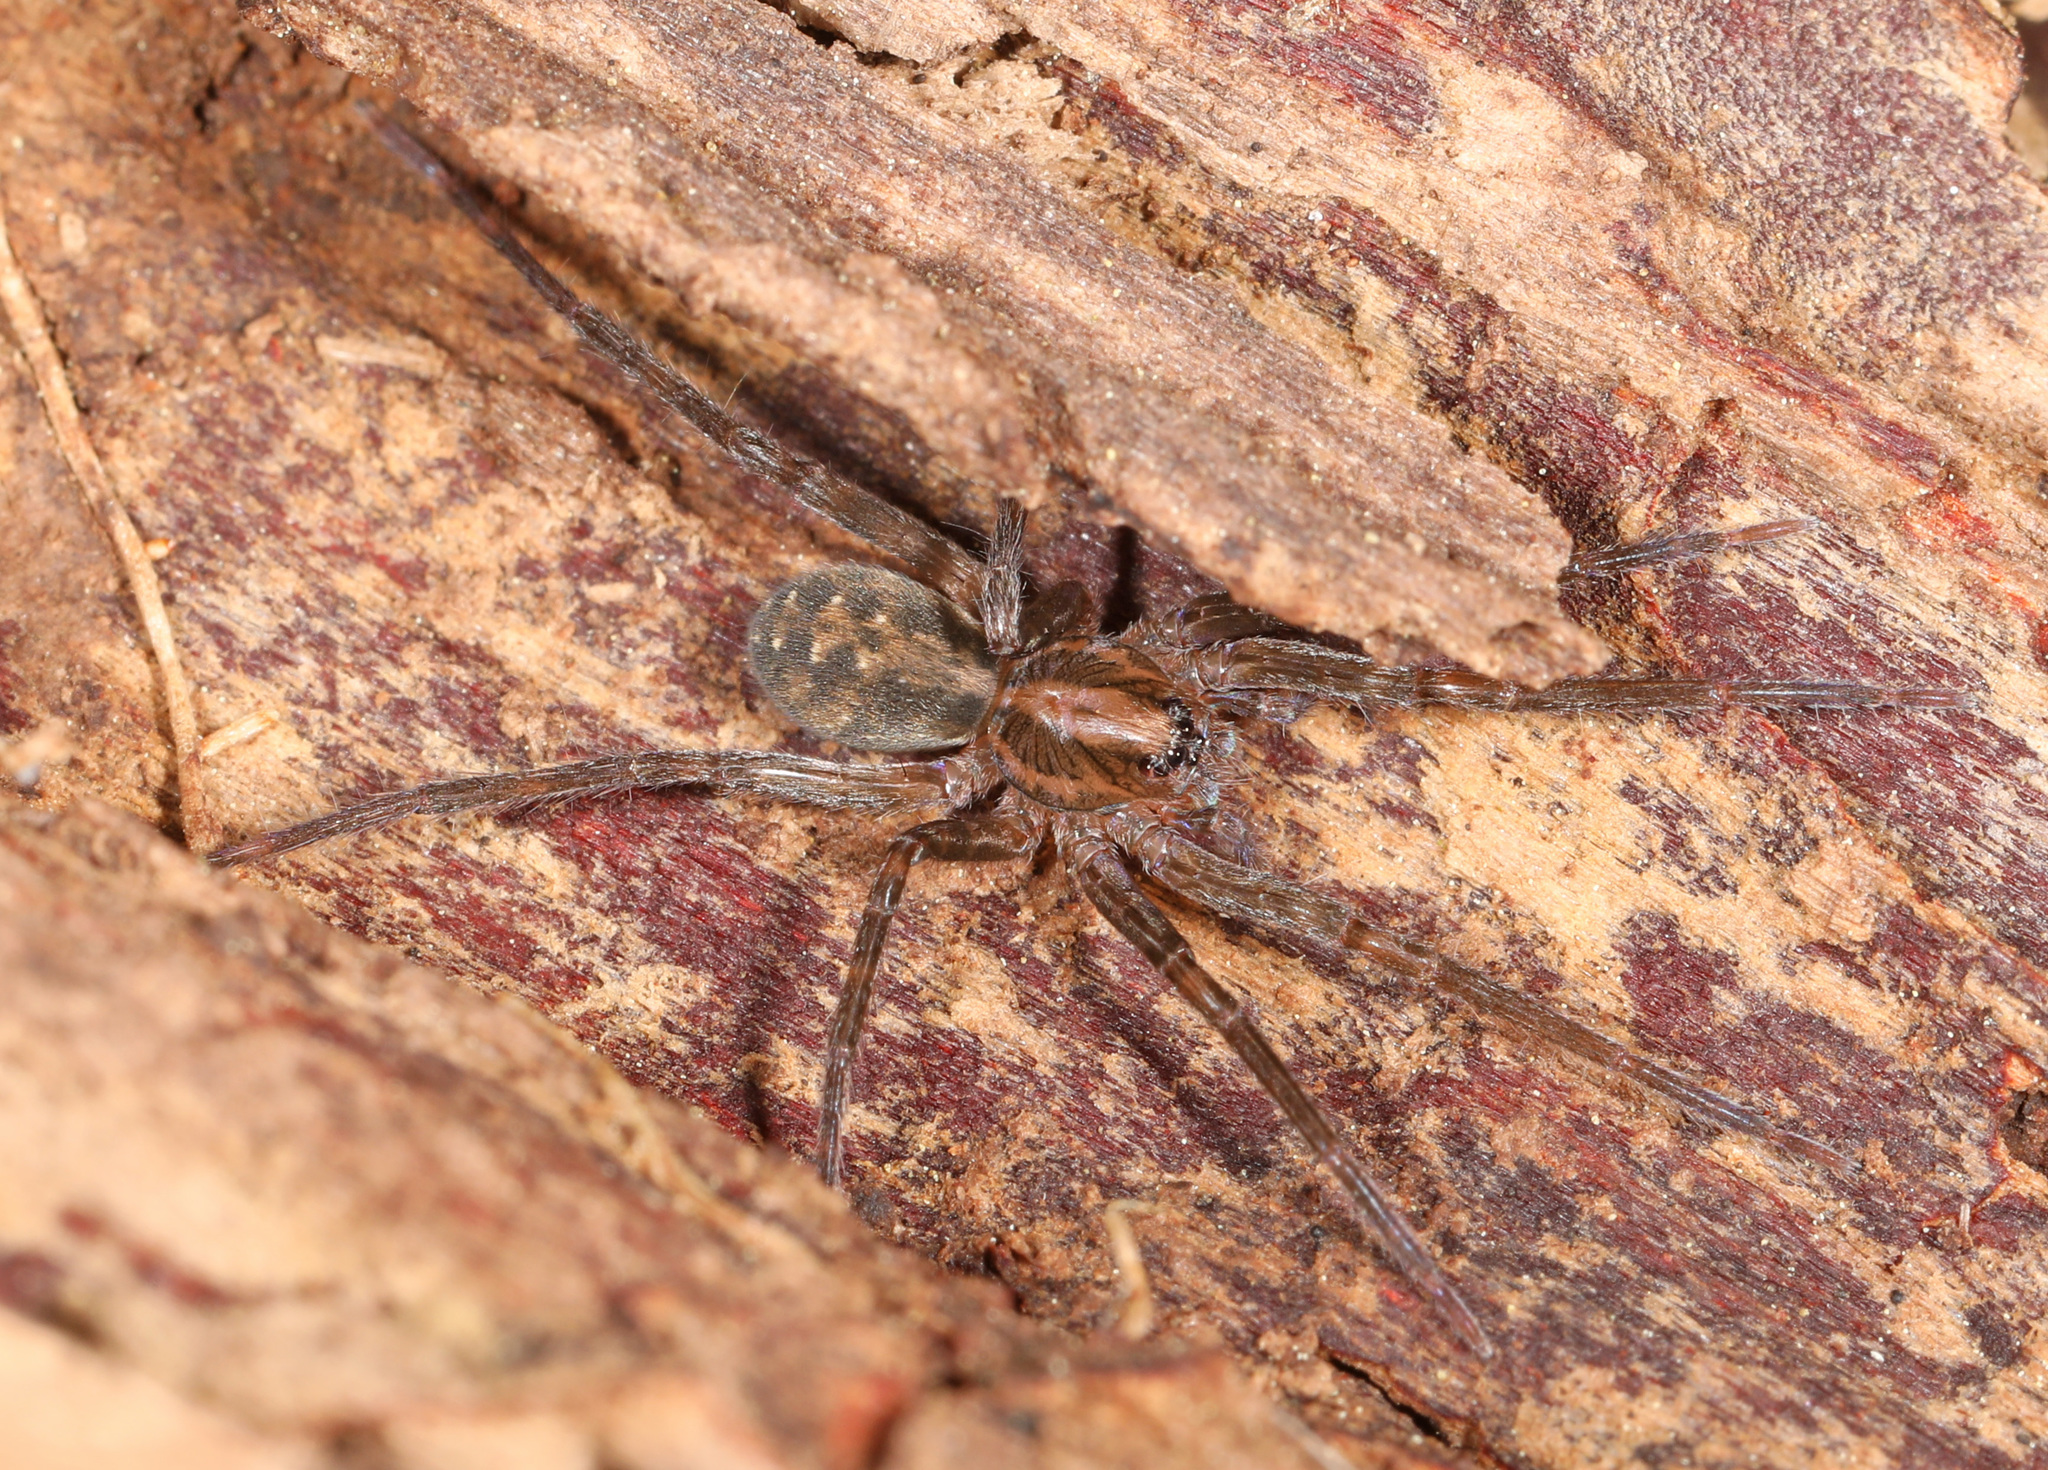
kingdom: Animalia
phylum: Arthropoda
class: Arachnida
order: Araneae
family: Ctenidae
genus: Ctenus
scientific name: Ctenus captiosus
